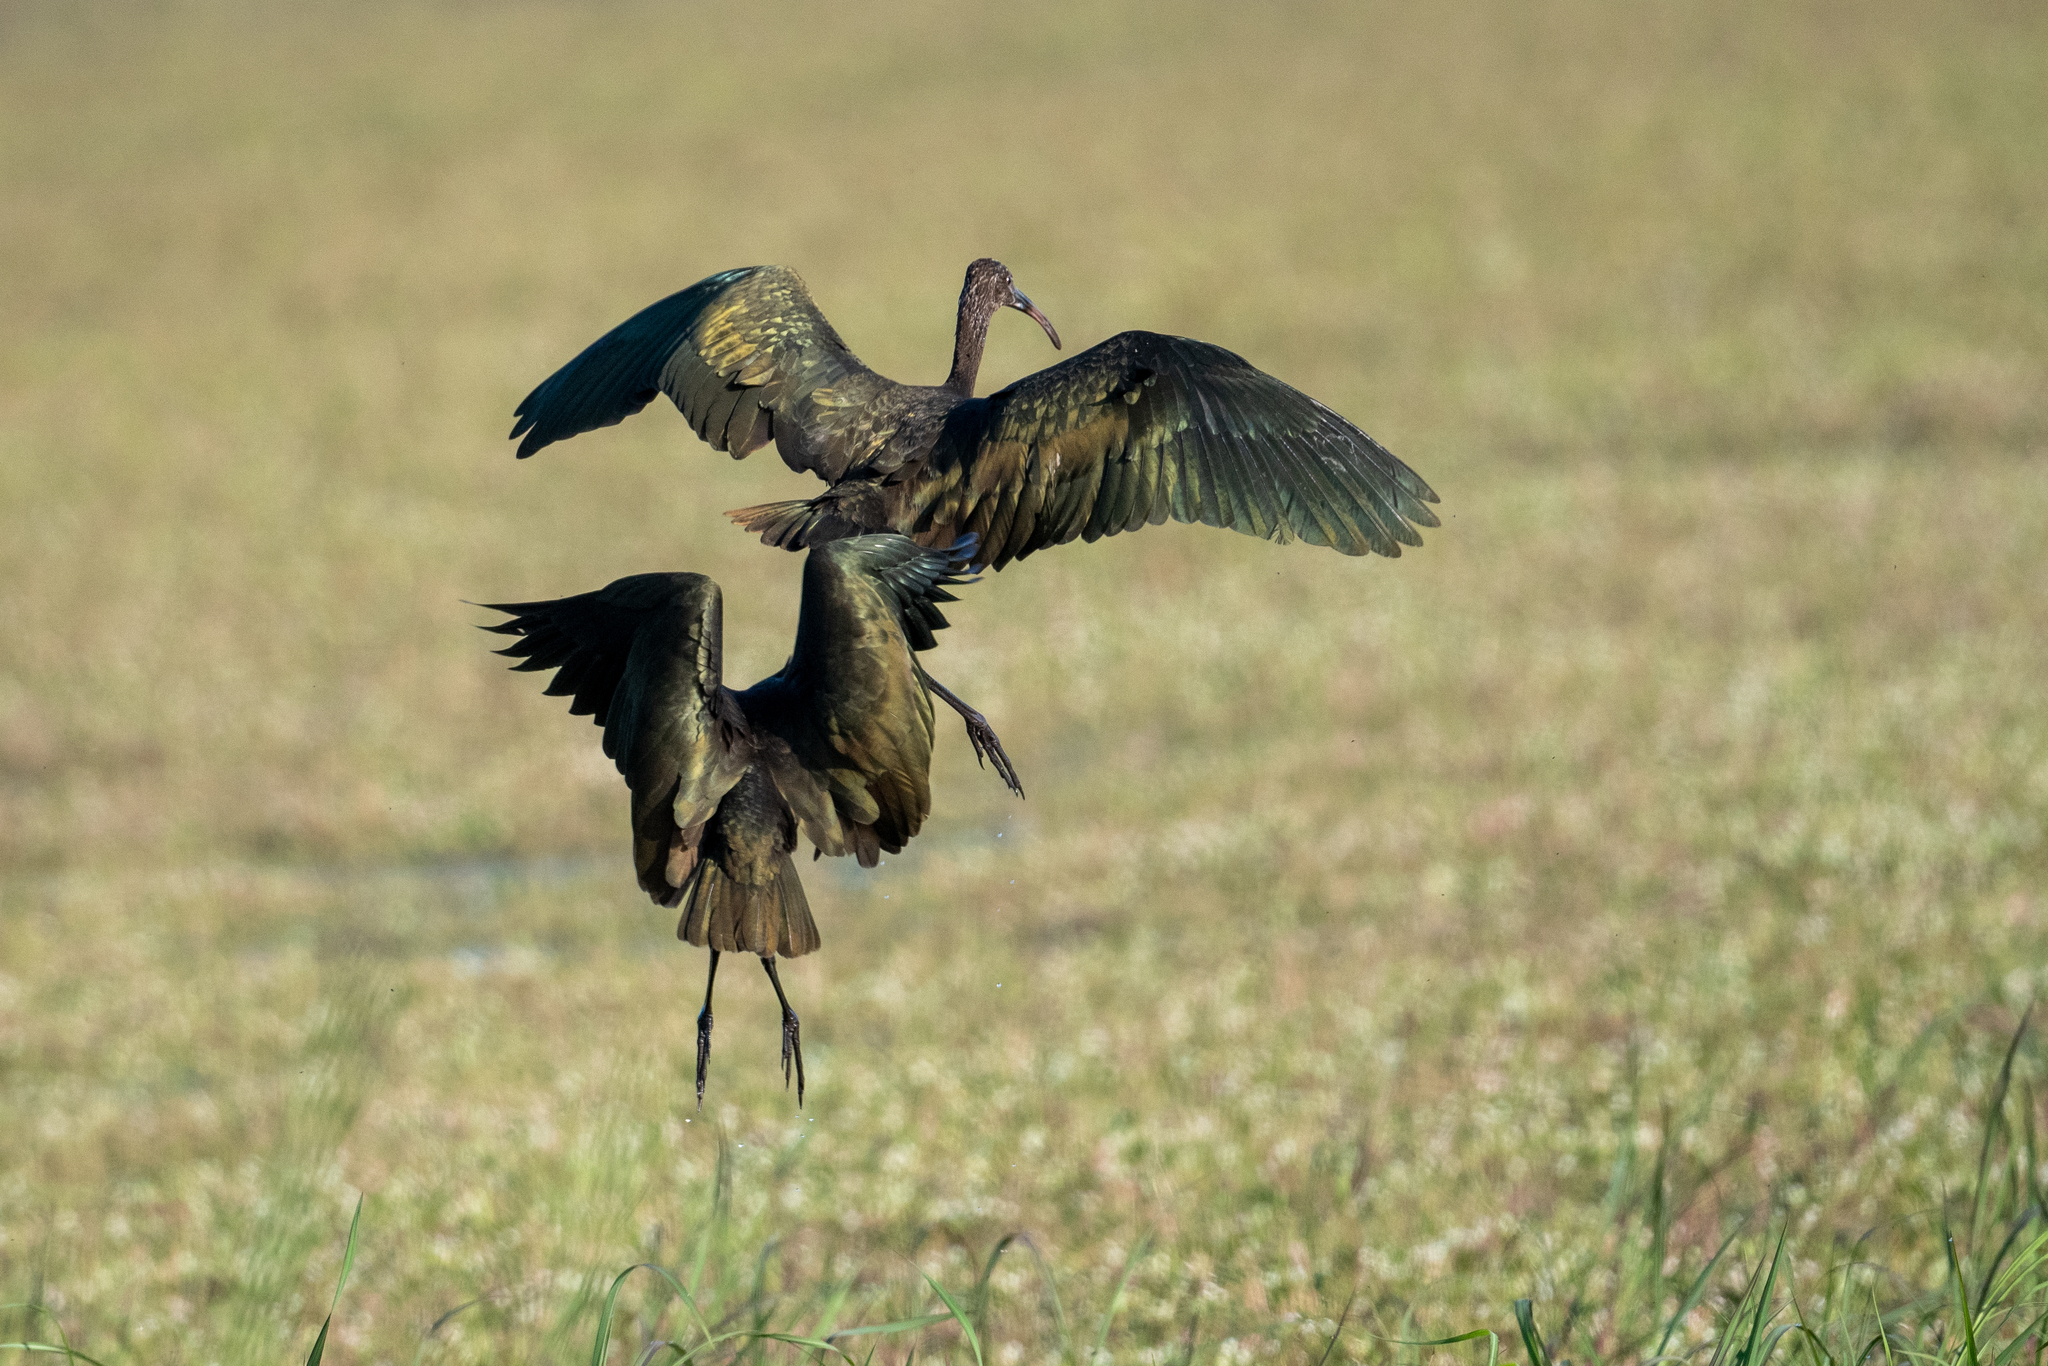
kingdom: Animalia
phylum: Chordata
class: Aves
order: Pelecaniformes
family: Threskiornithidae
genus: Plegadis
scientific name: Plegadis chihi
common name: White-faced ibis
